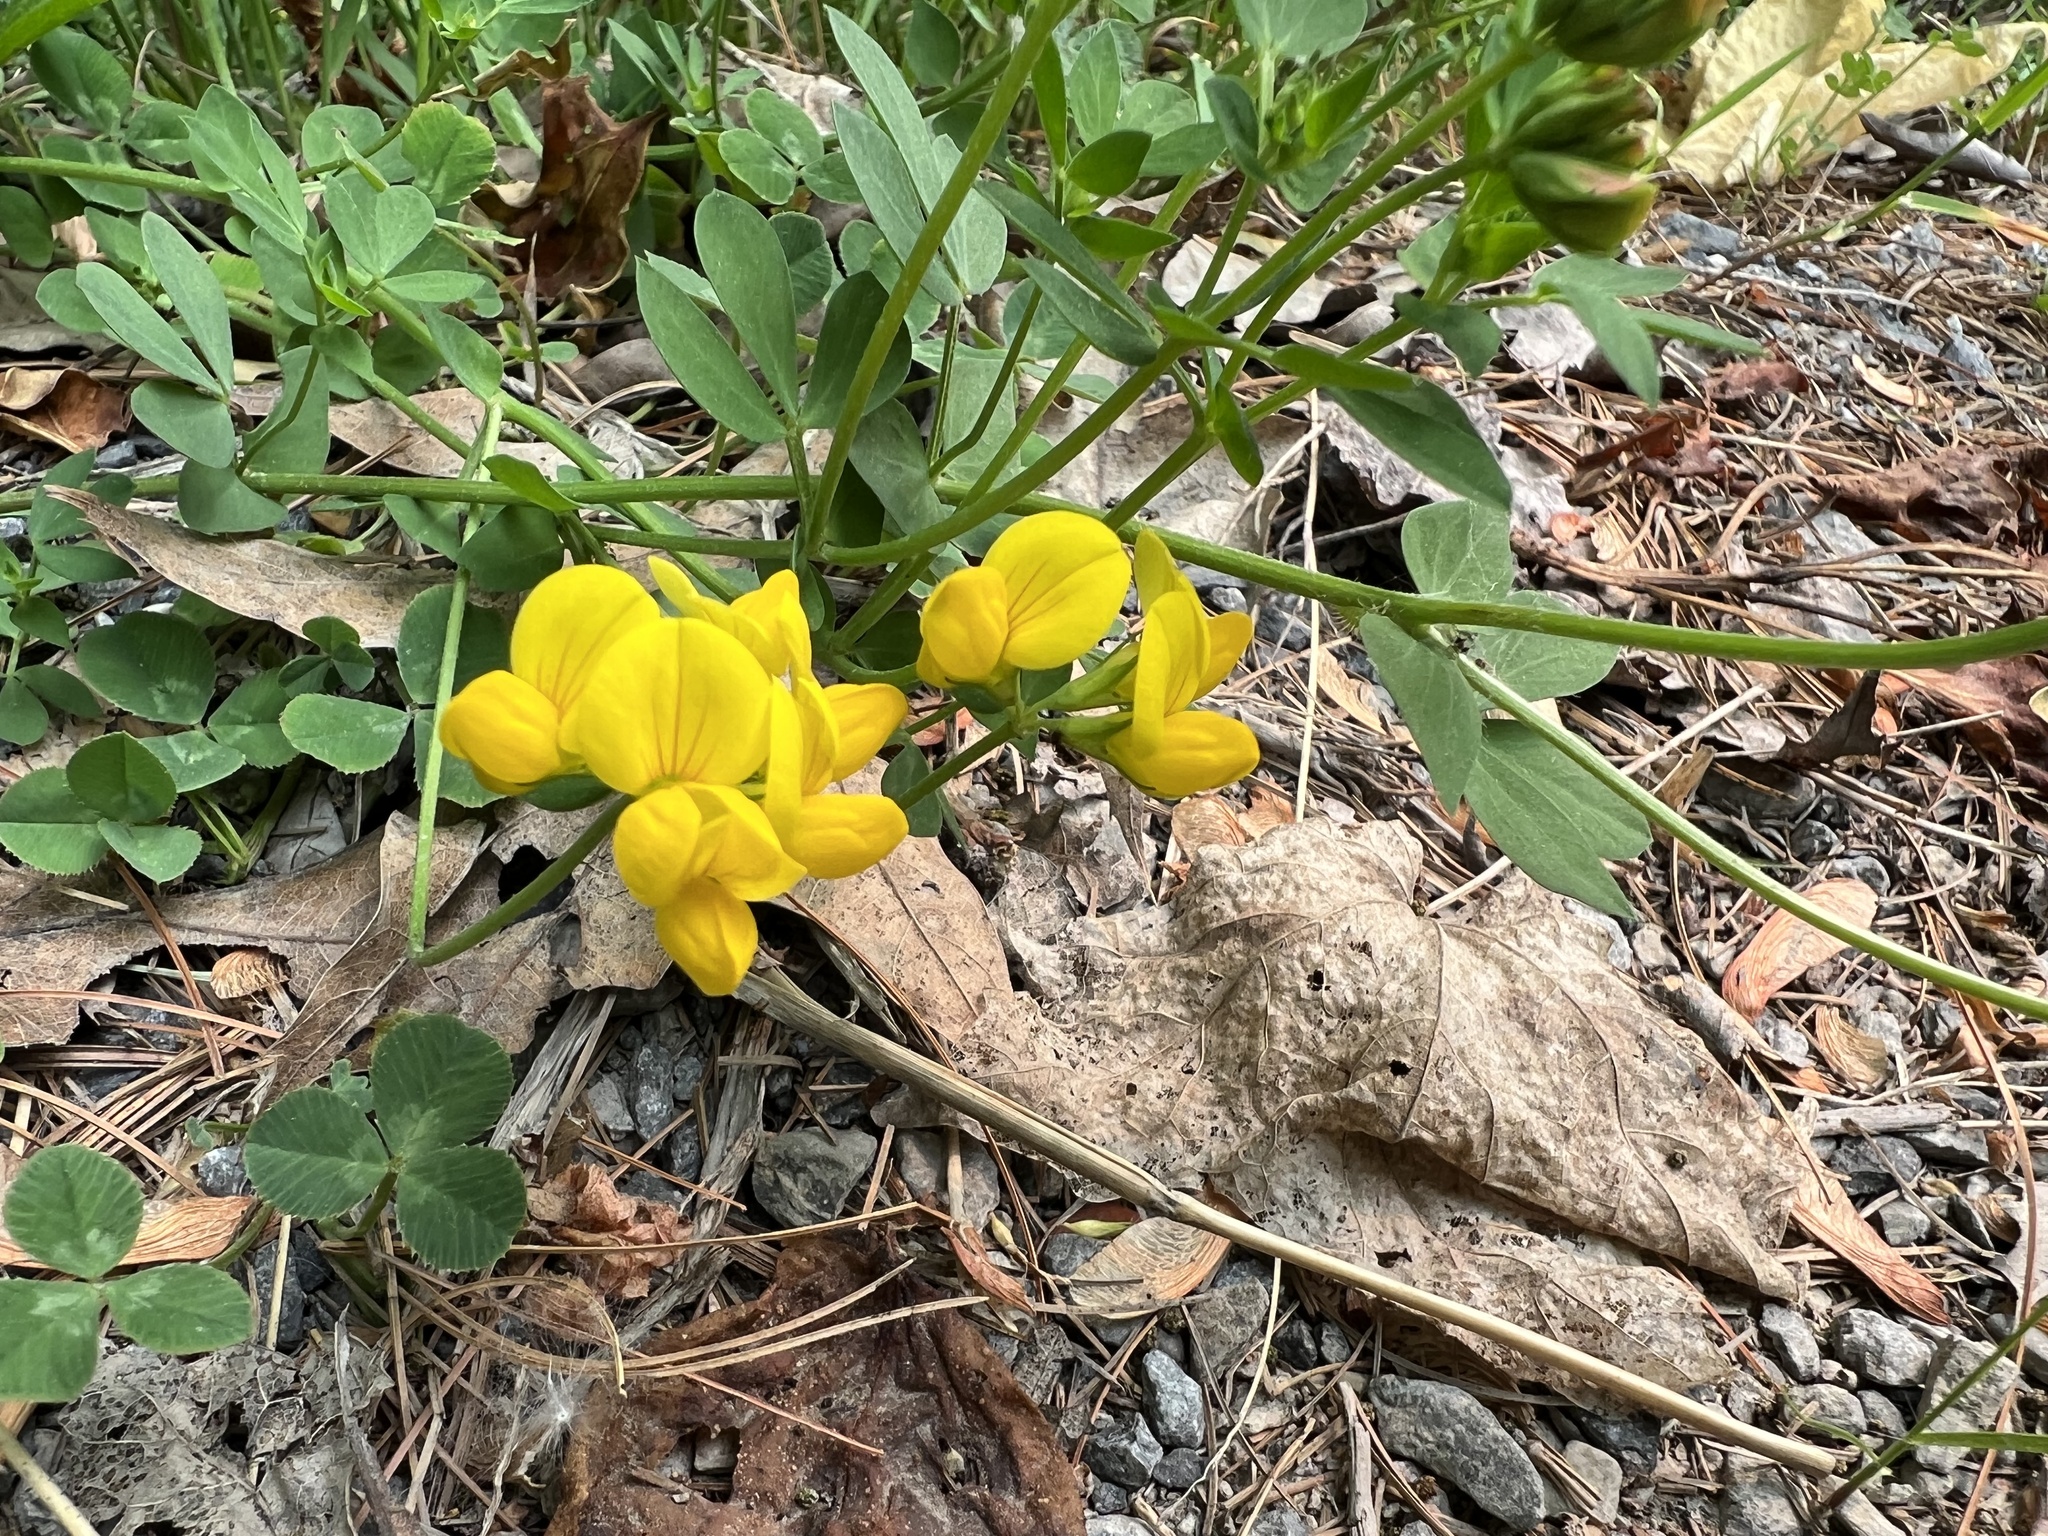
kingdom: Plantae
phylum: Tracheophyta
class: Magnoliopsida
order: Fabales
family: Fabaceae
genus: Lotus
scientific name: Lotus corniculatus
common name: Common bird's-foot-trefoil
